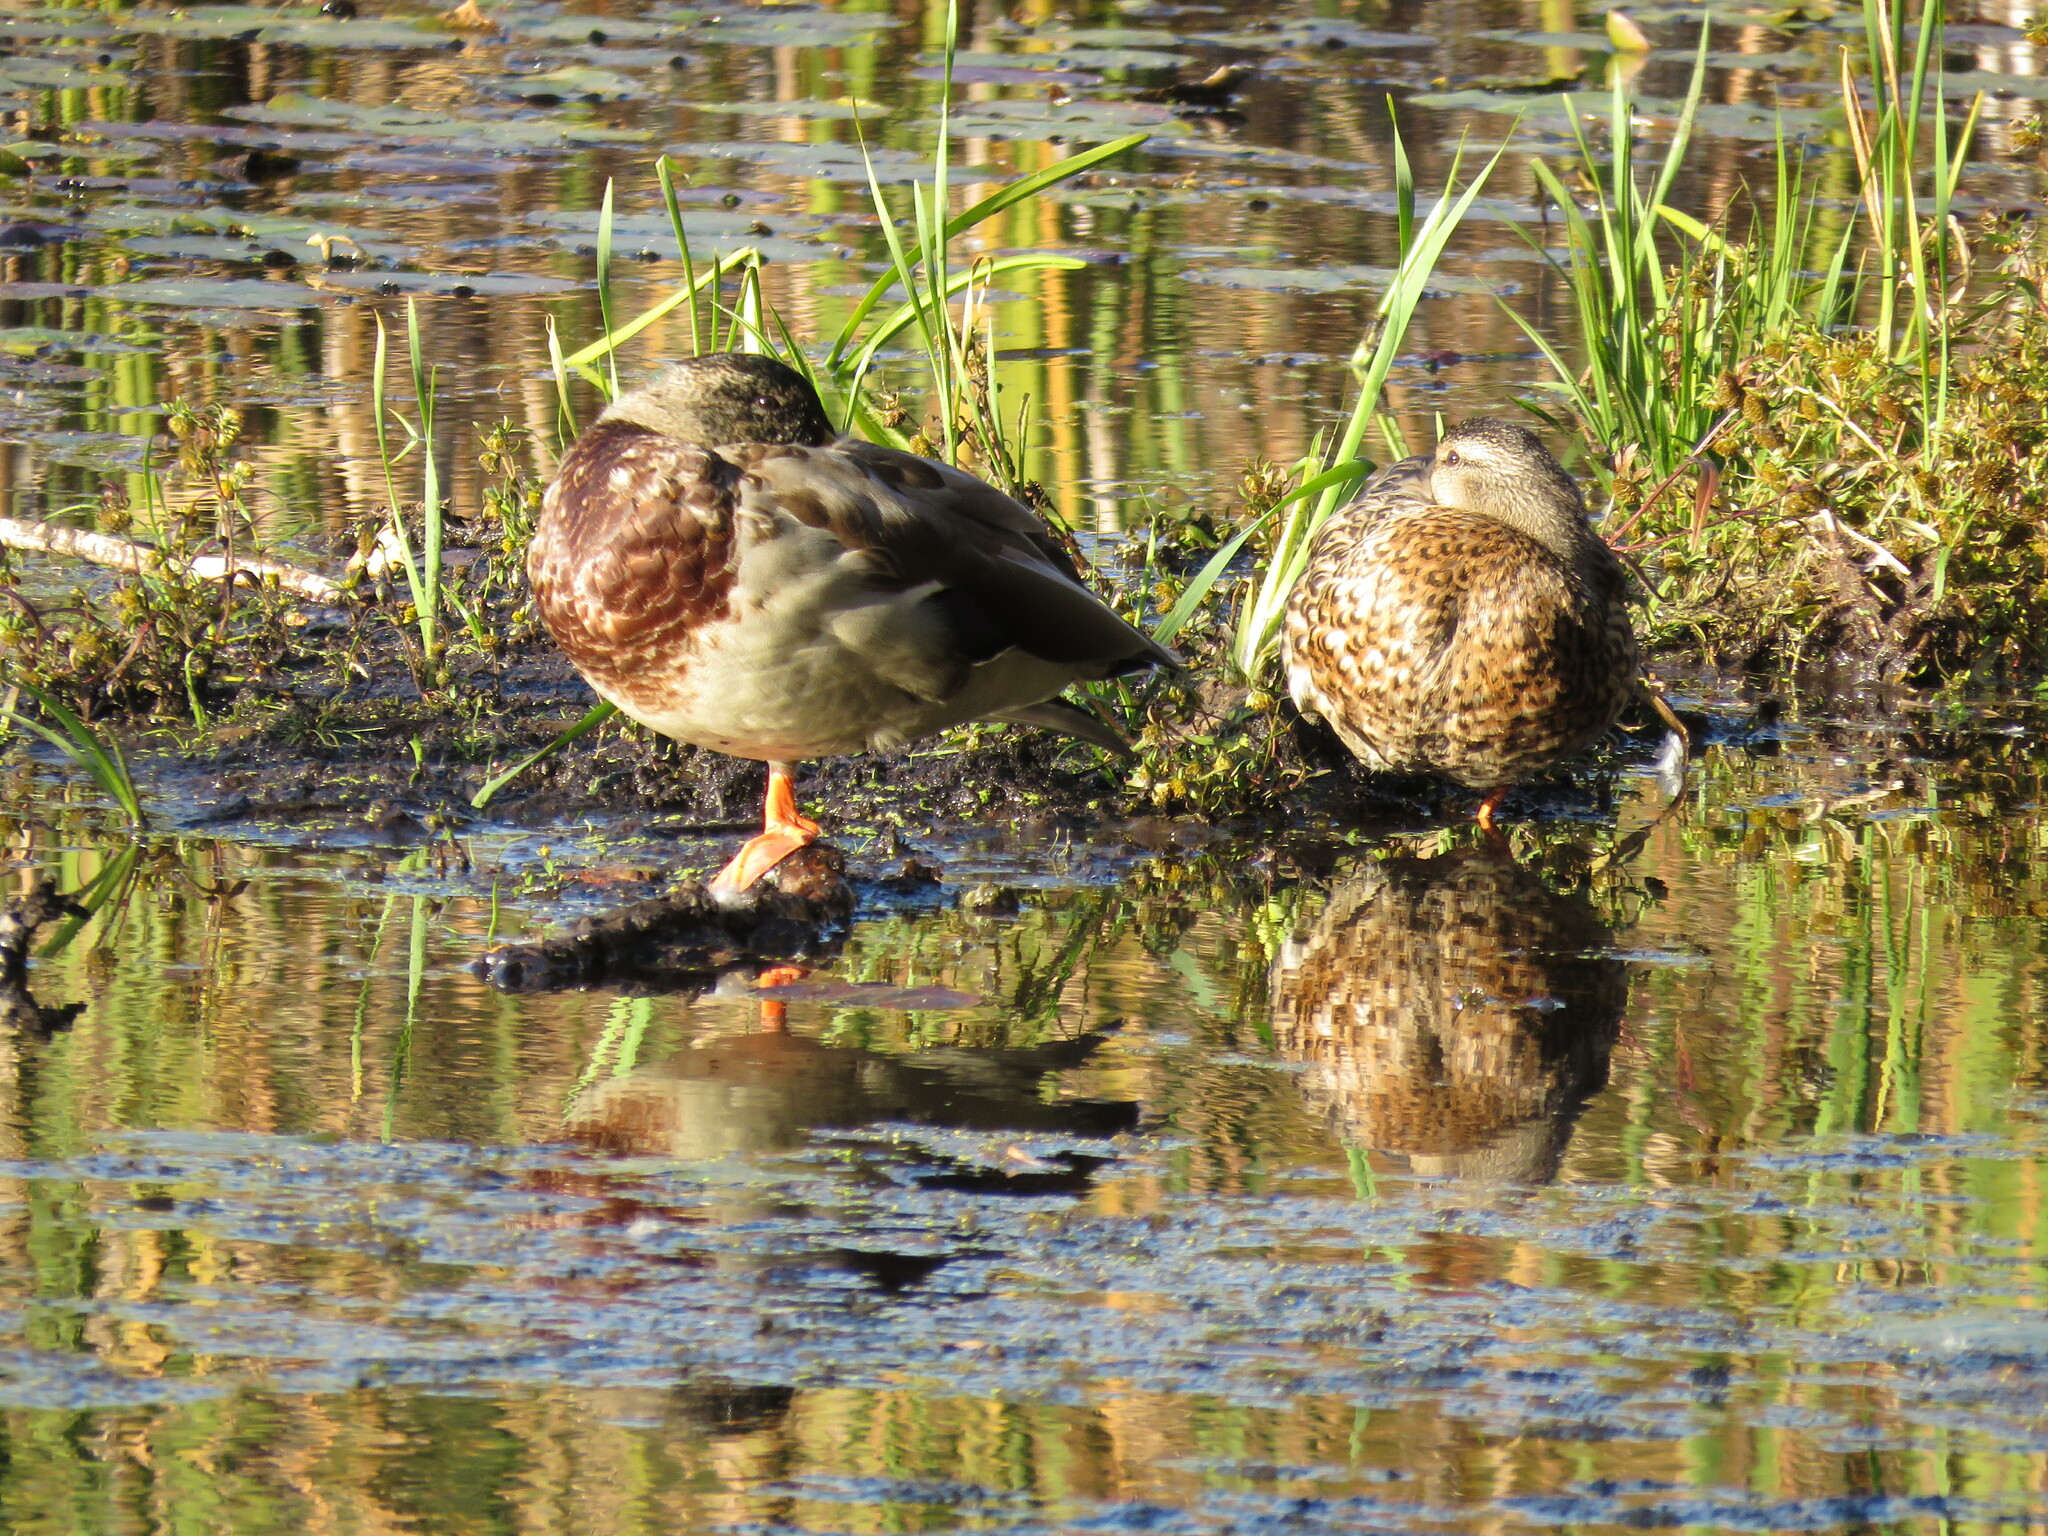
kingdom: Animalia
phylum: Chordata
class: Aves
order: Anseriformes
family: Anatidae
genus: Anas
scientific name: Anas platyrhynchos
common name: Mallard
